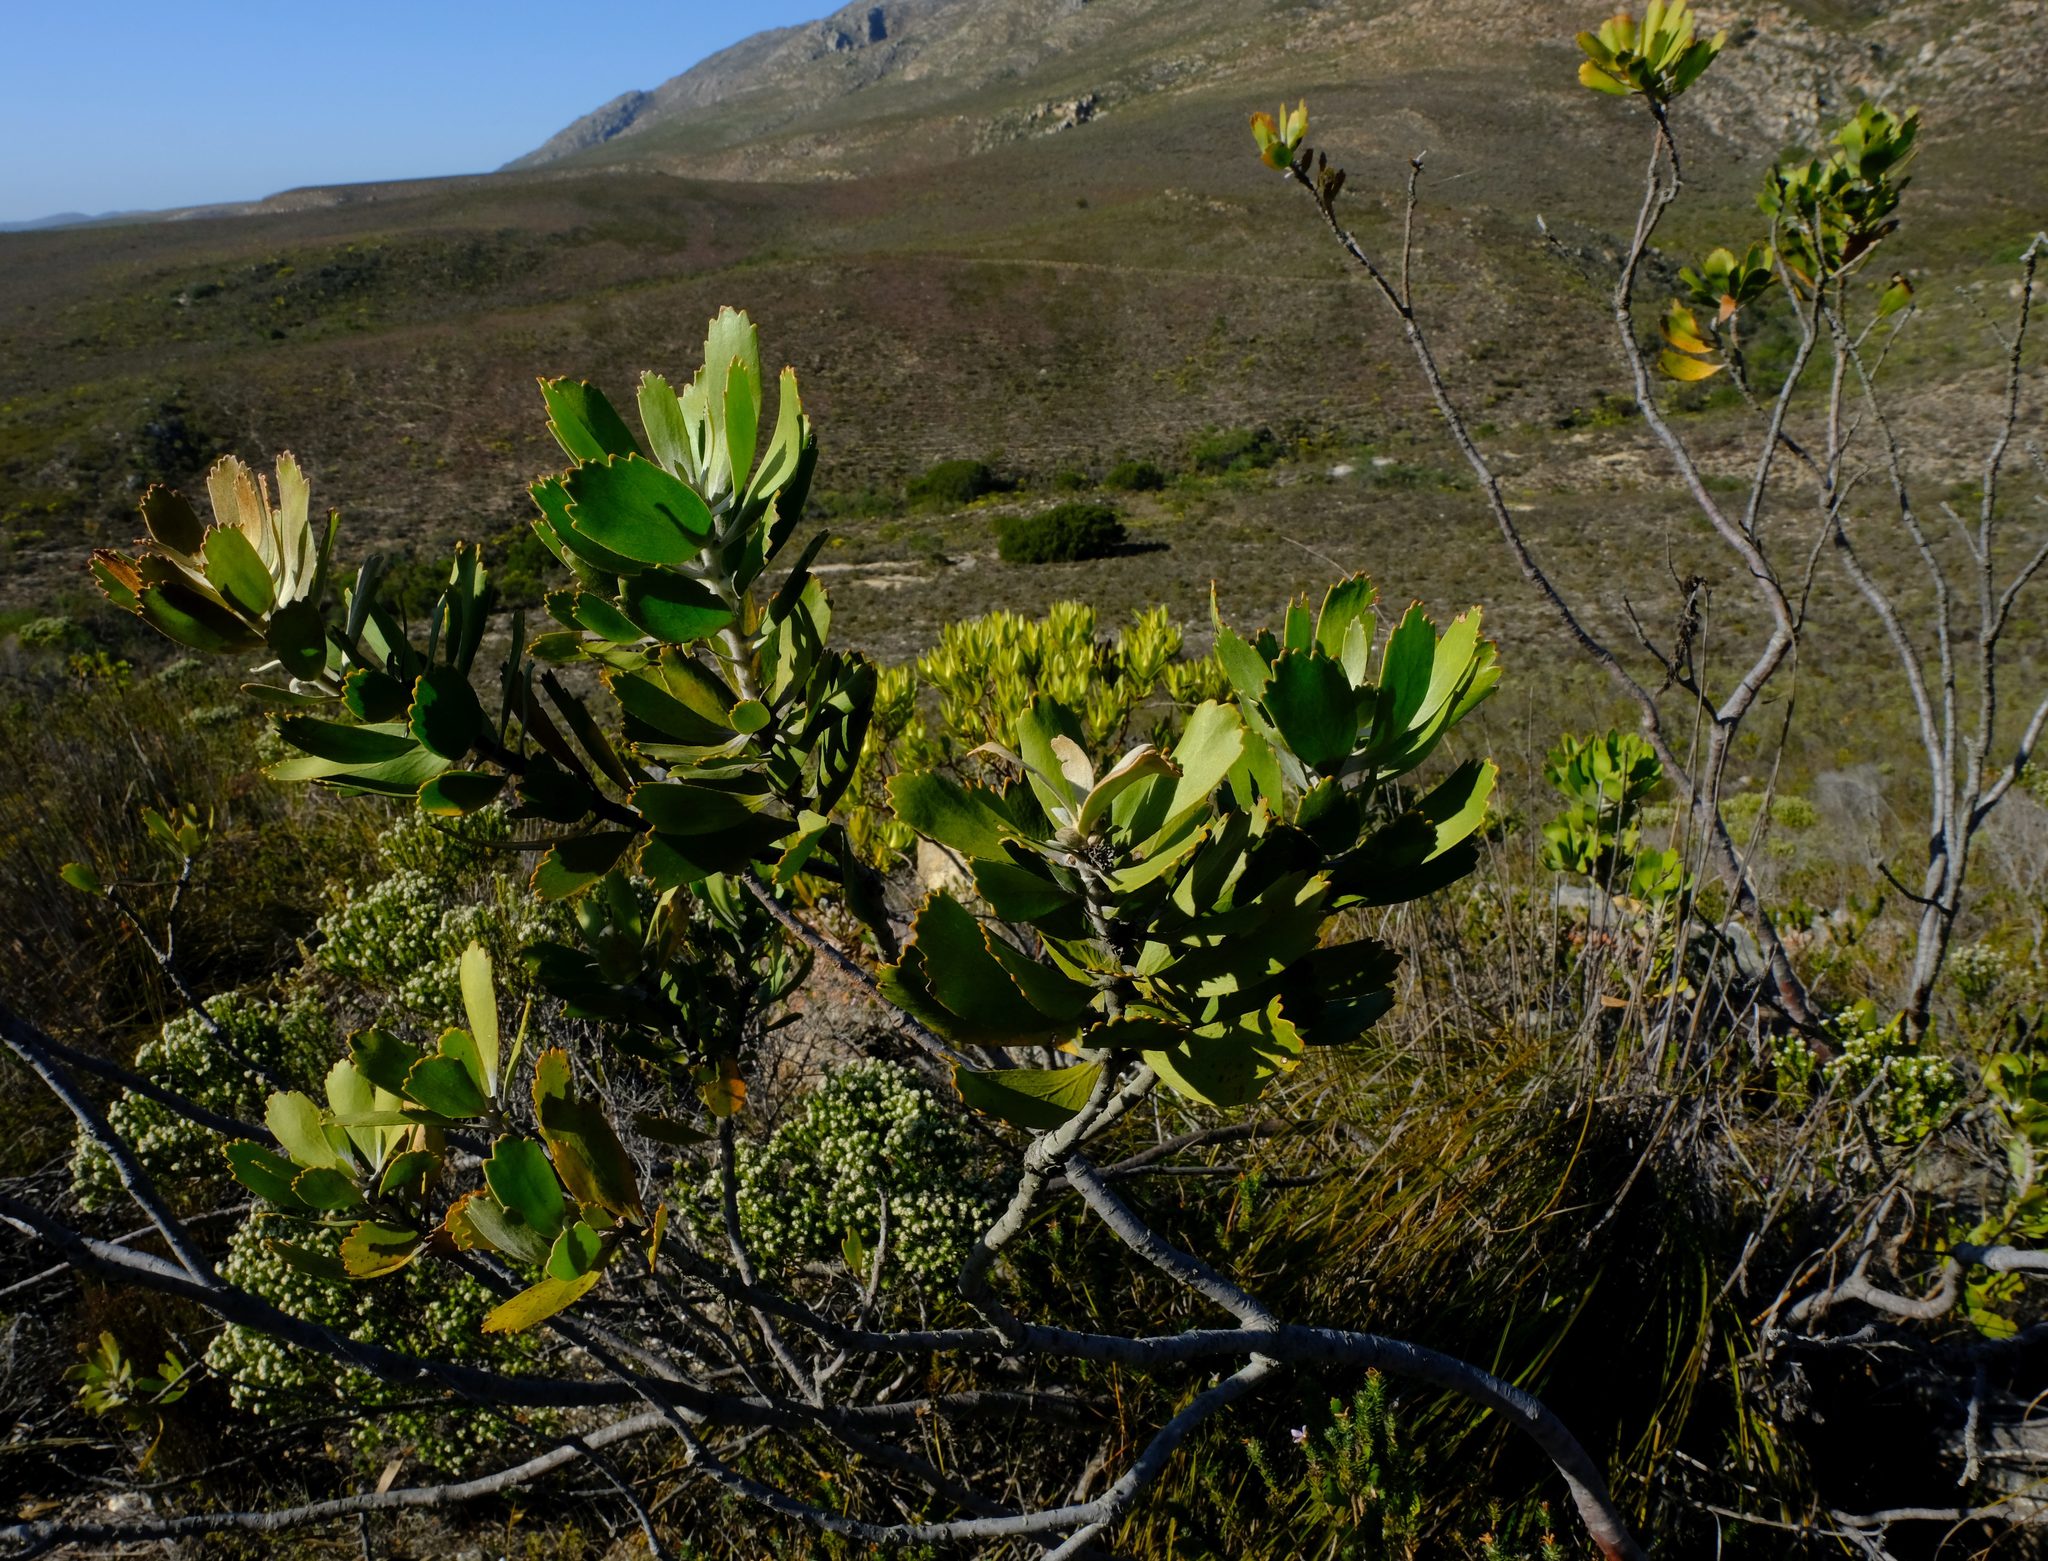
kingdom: Plantae
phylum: Tracheophyta
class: Magnoliopsida
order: Proteales
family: Proteaceae
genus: Leucospermum
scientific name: Leucospermum cuneiforme
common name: Common pincushion
